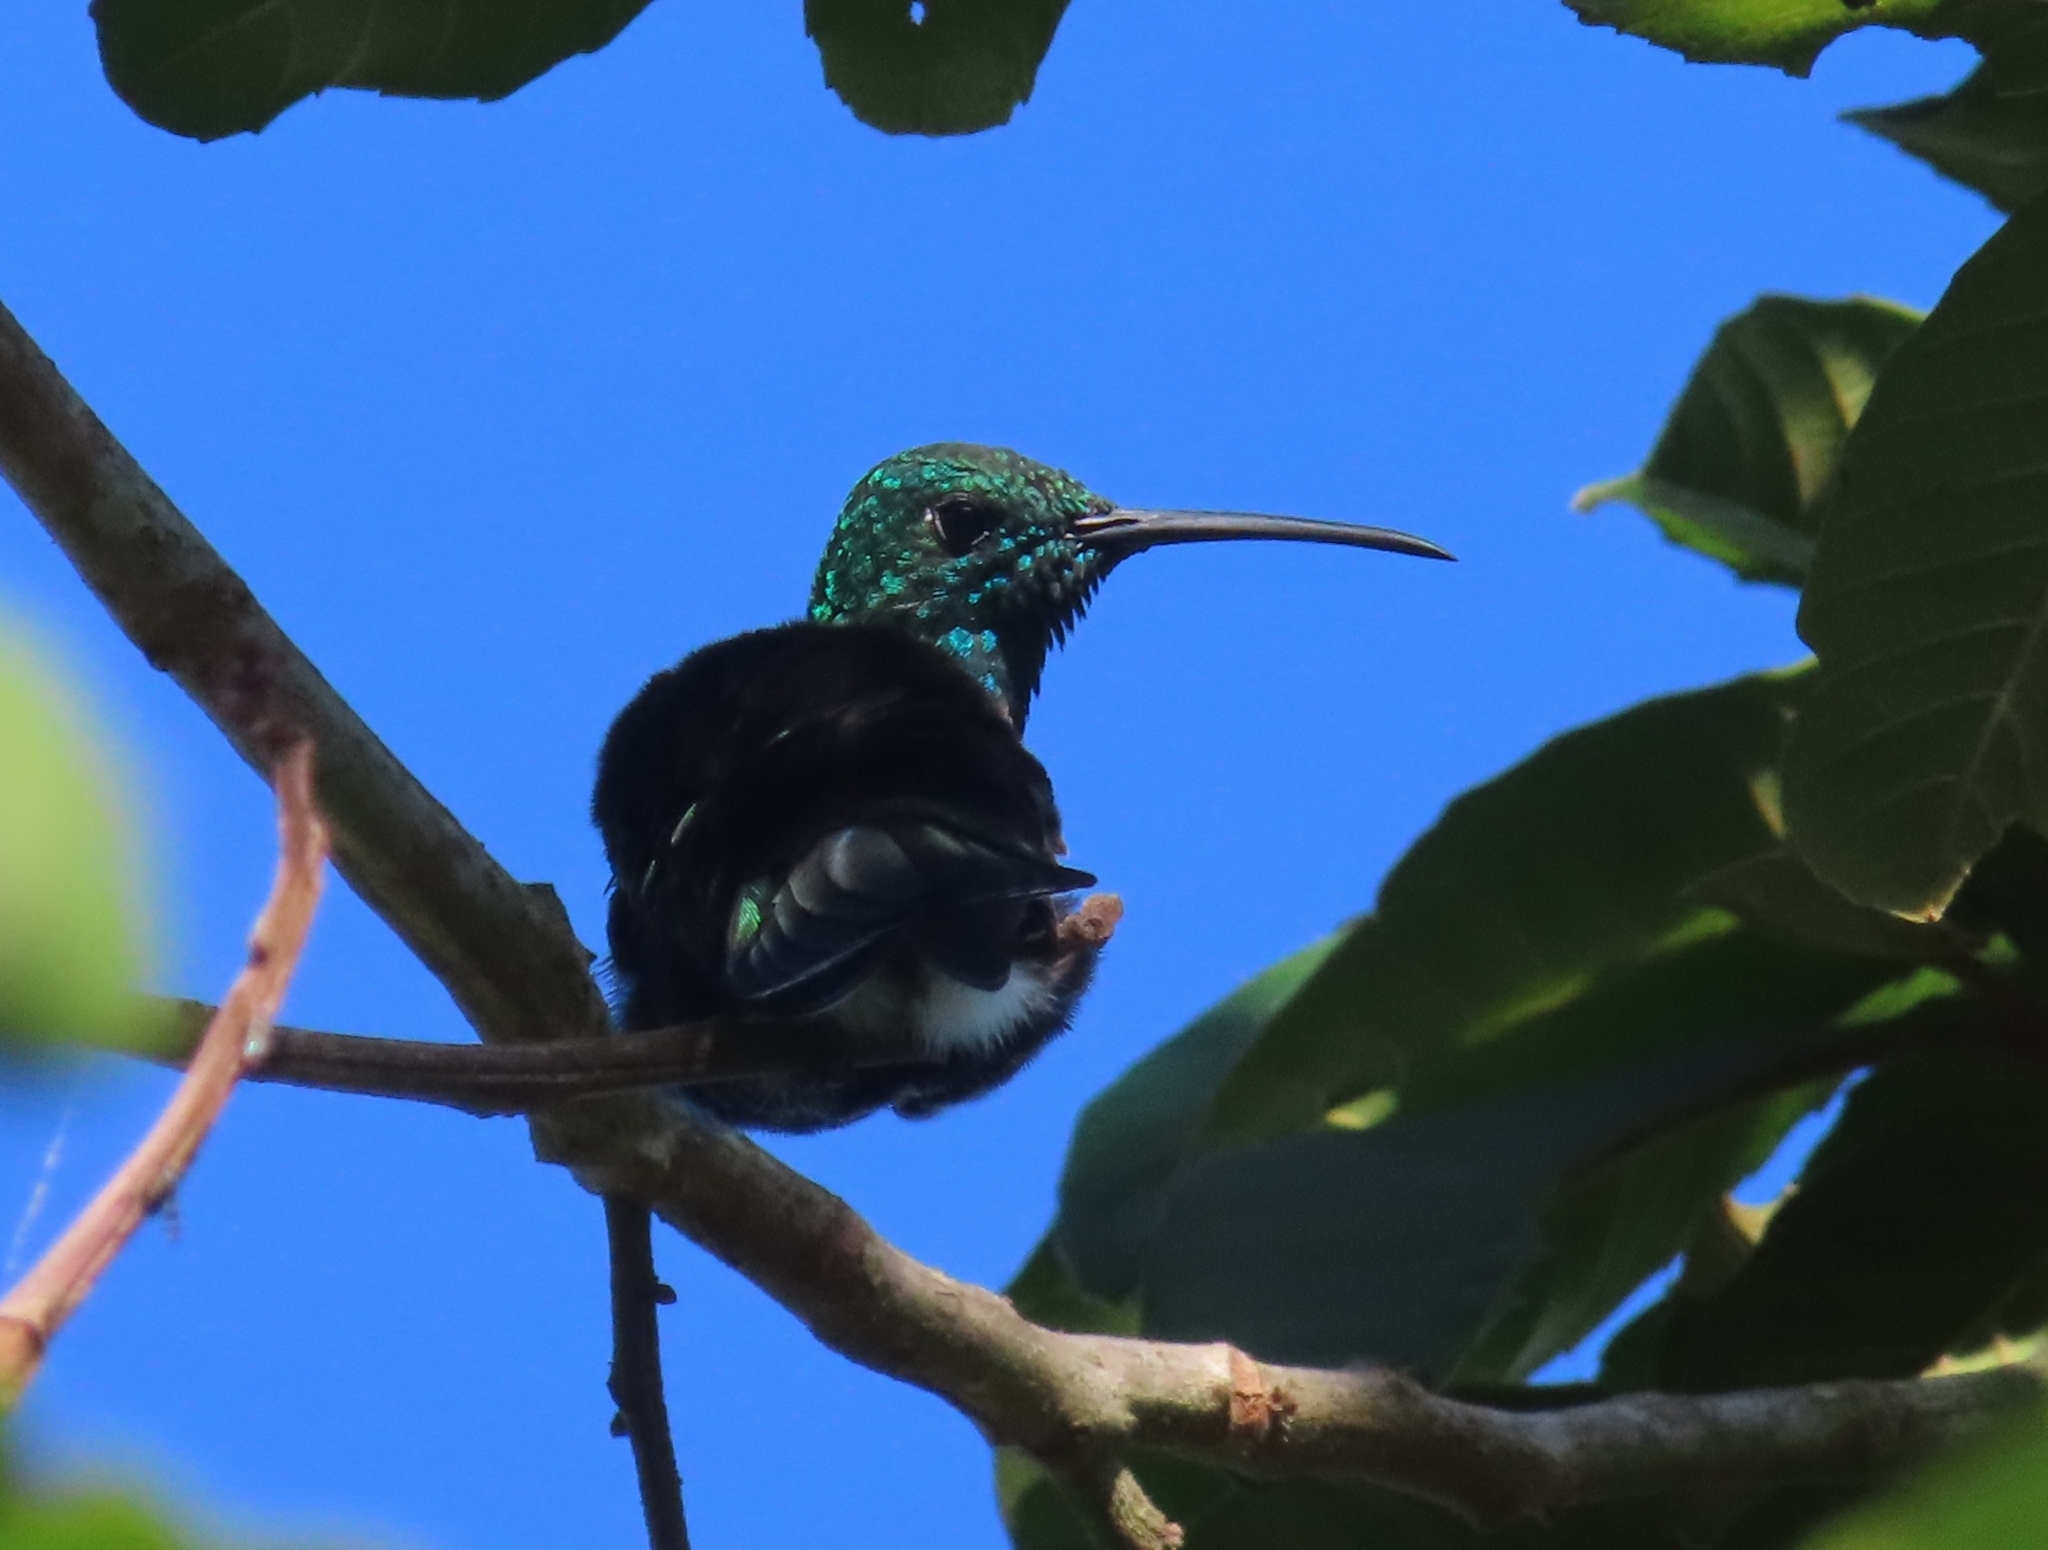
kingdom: Animalia
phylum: Chordata
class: Aves
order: Apodiformes
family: Trochilidae
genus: Anthracothorax
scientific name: Anthracothorax viridis
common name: Green mango
